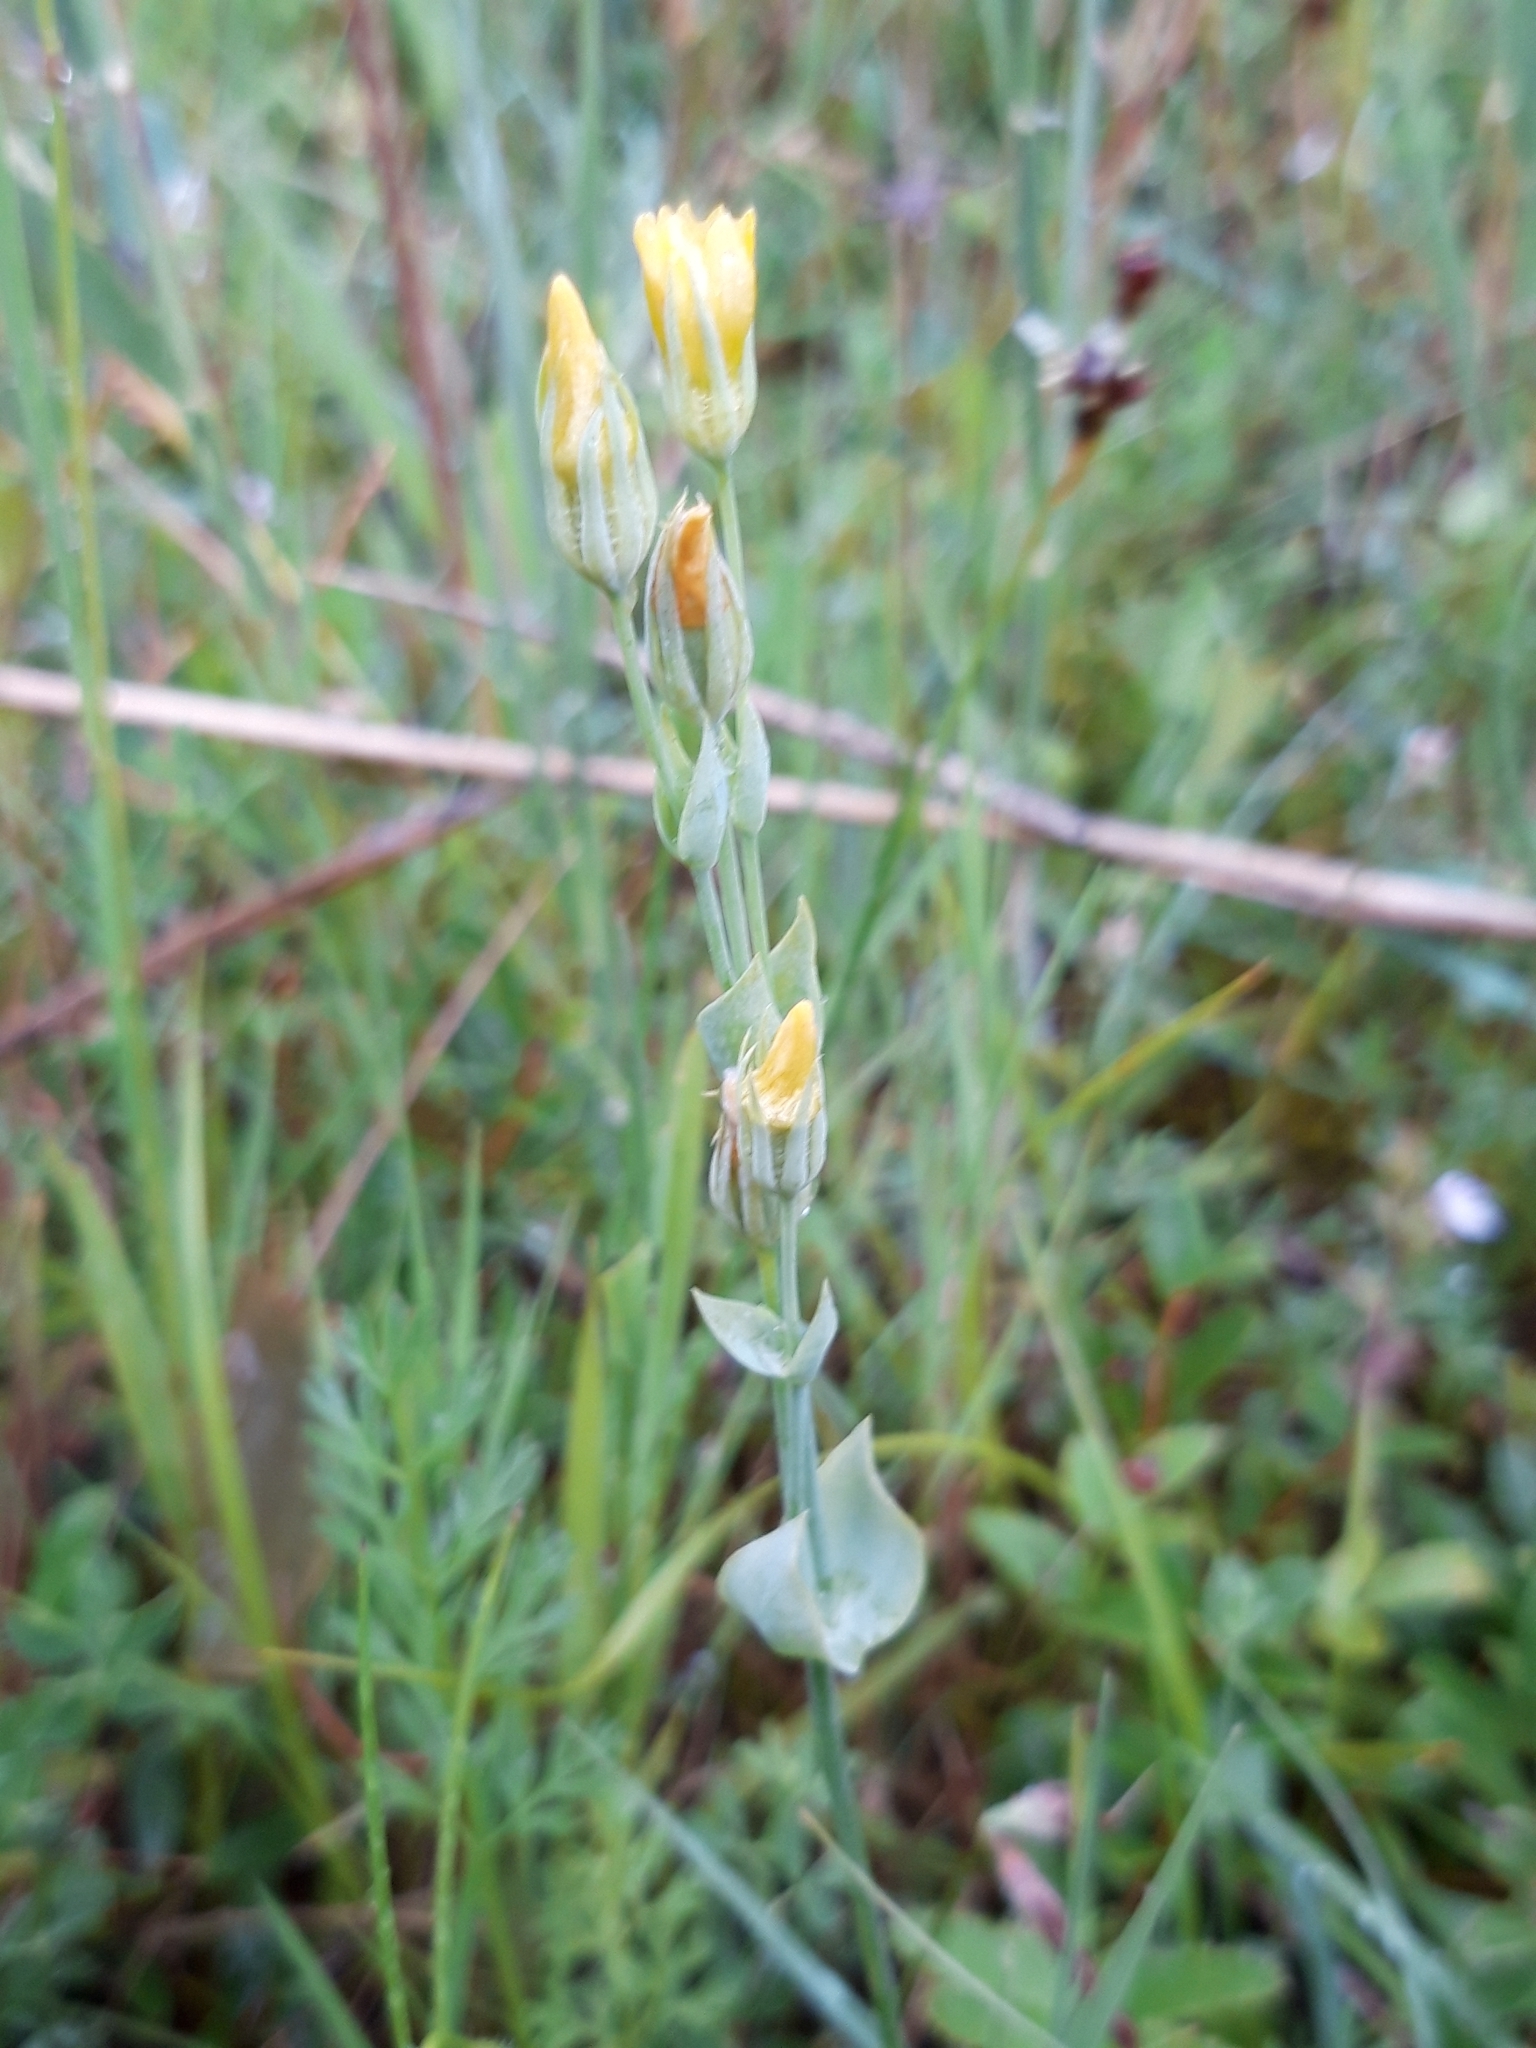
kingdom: Plantae
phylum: Tracheophyta
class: Magnoliopsida
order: Gentianales
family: Gentianaceae
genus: Blackstonia
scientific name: Blackstonia perfoliata
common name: Yellow-wort
